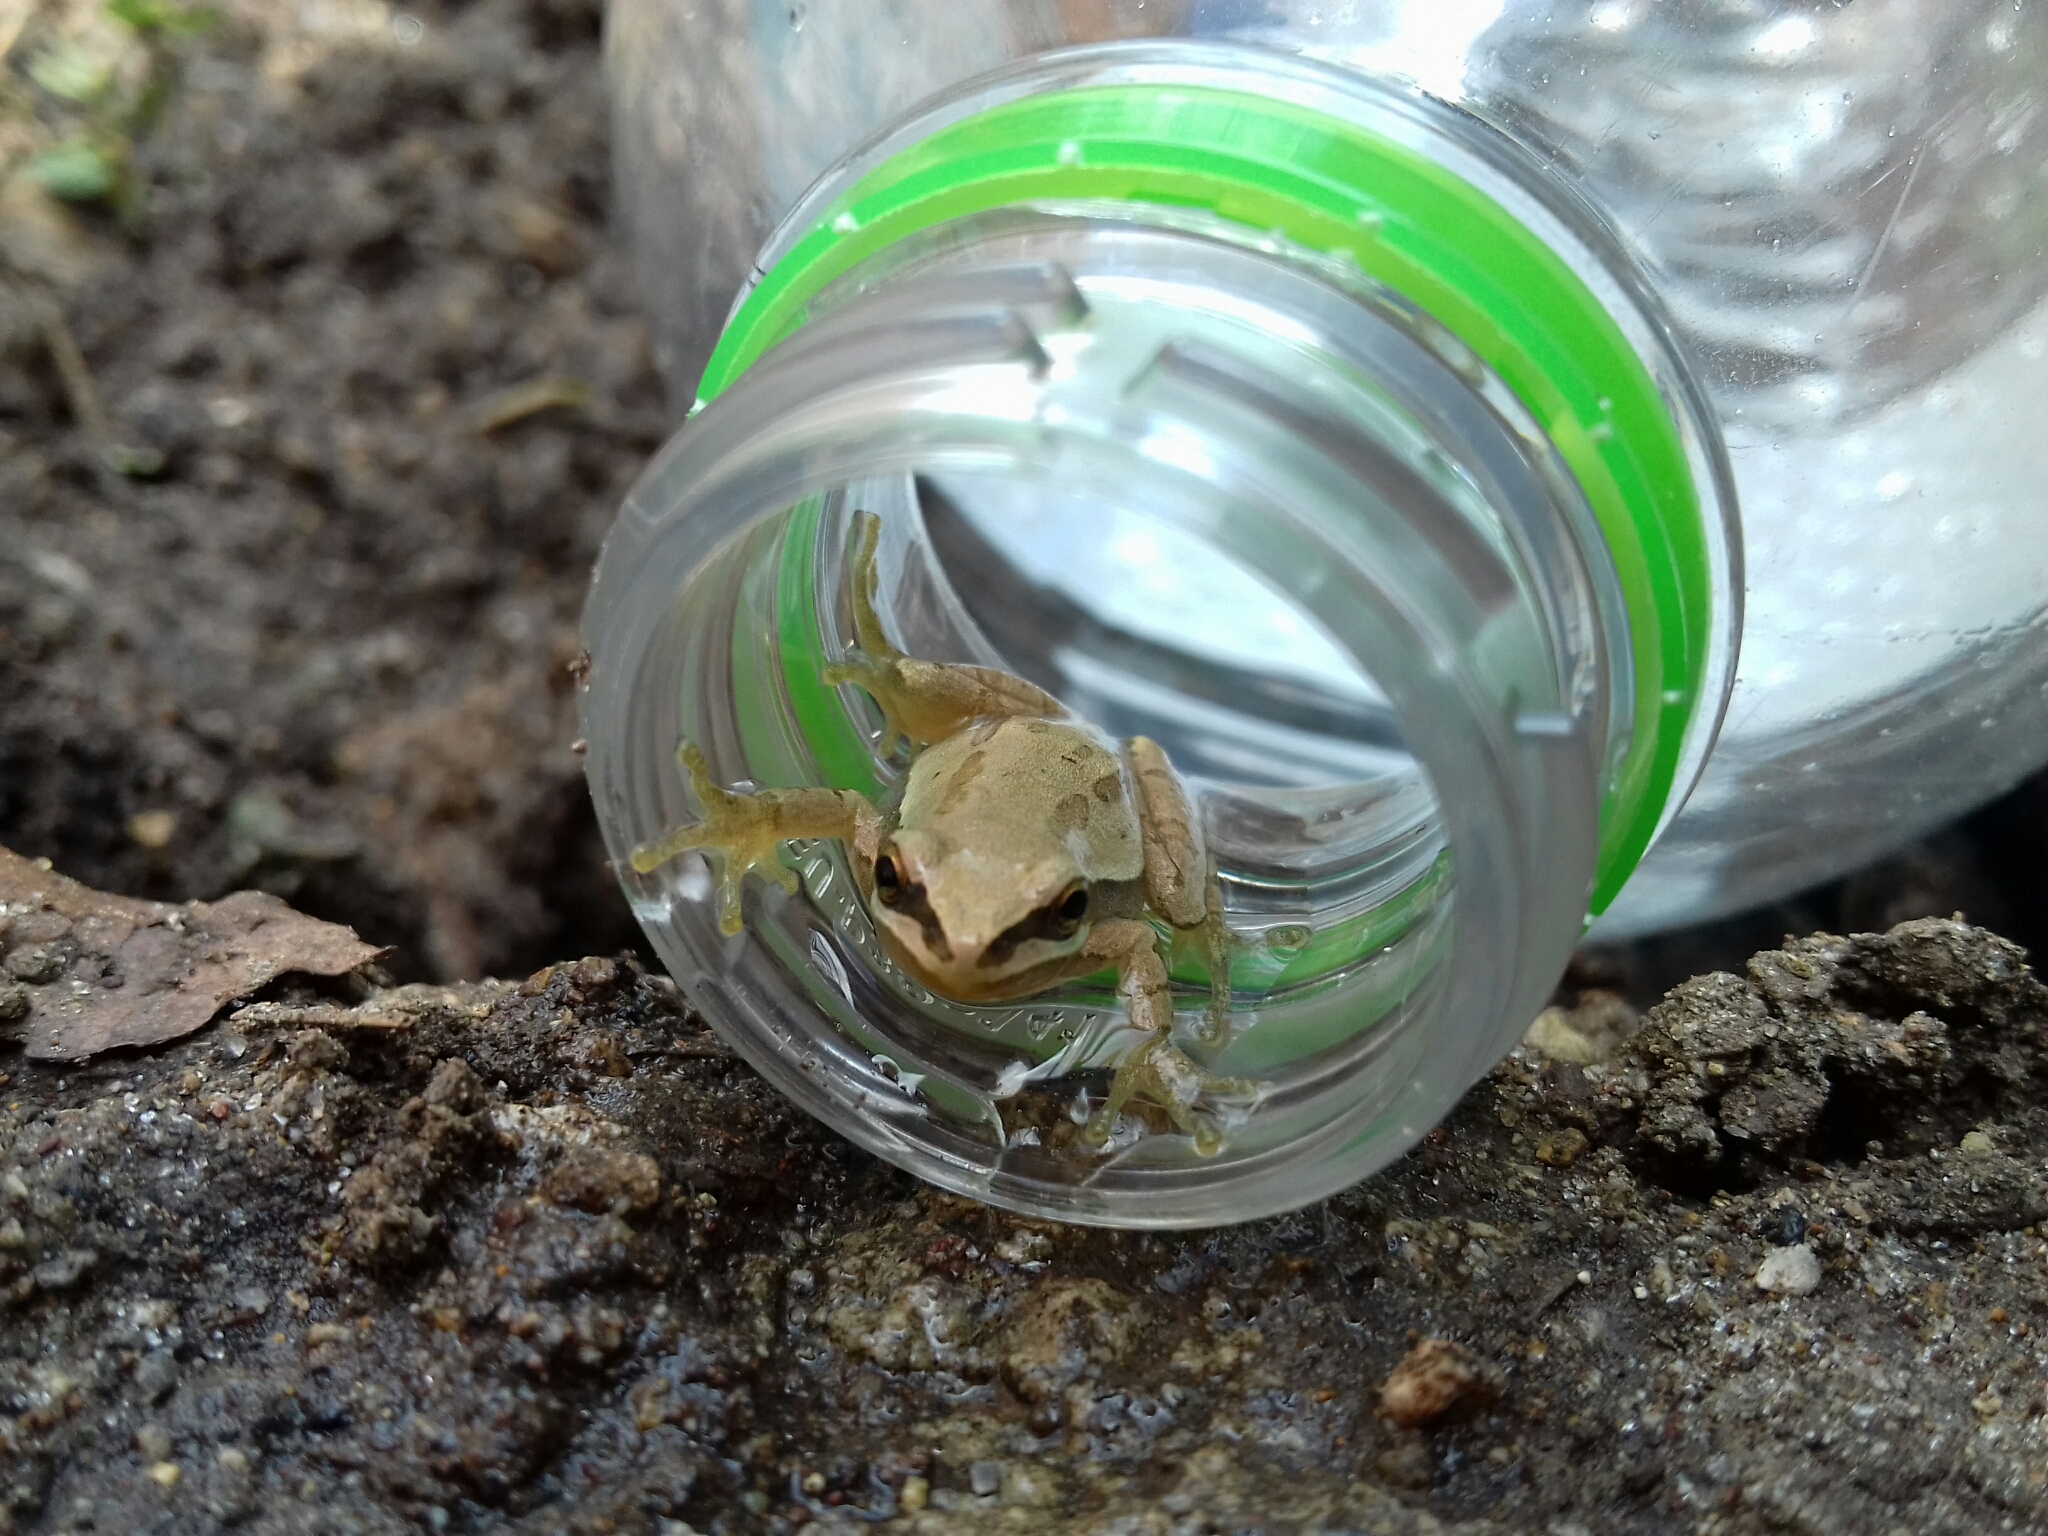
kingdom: Animalia
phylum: Chordata
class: Amphibia
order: Anura
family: Hylidae
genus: Dryophytes
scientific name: Dryophytes eximius
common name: Mountain treefrog
